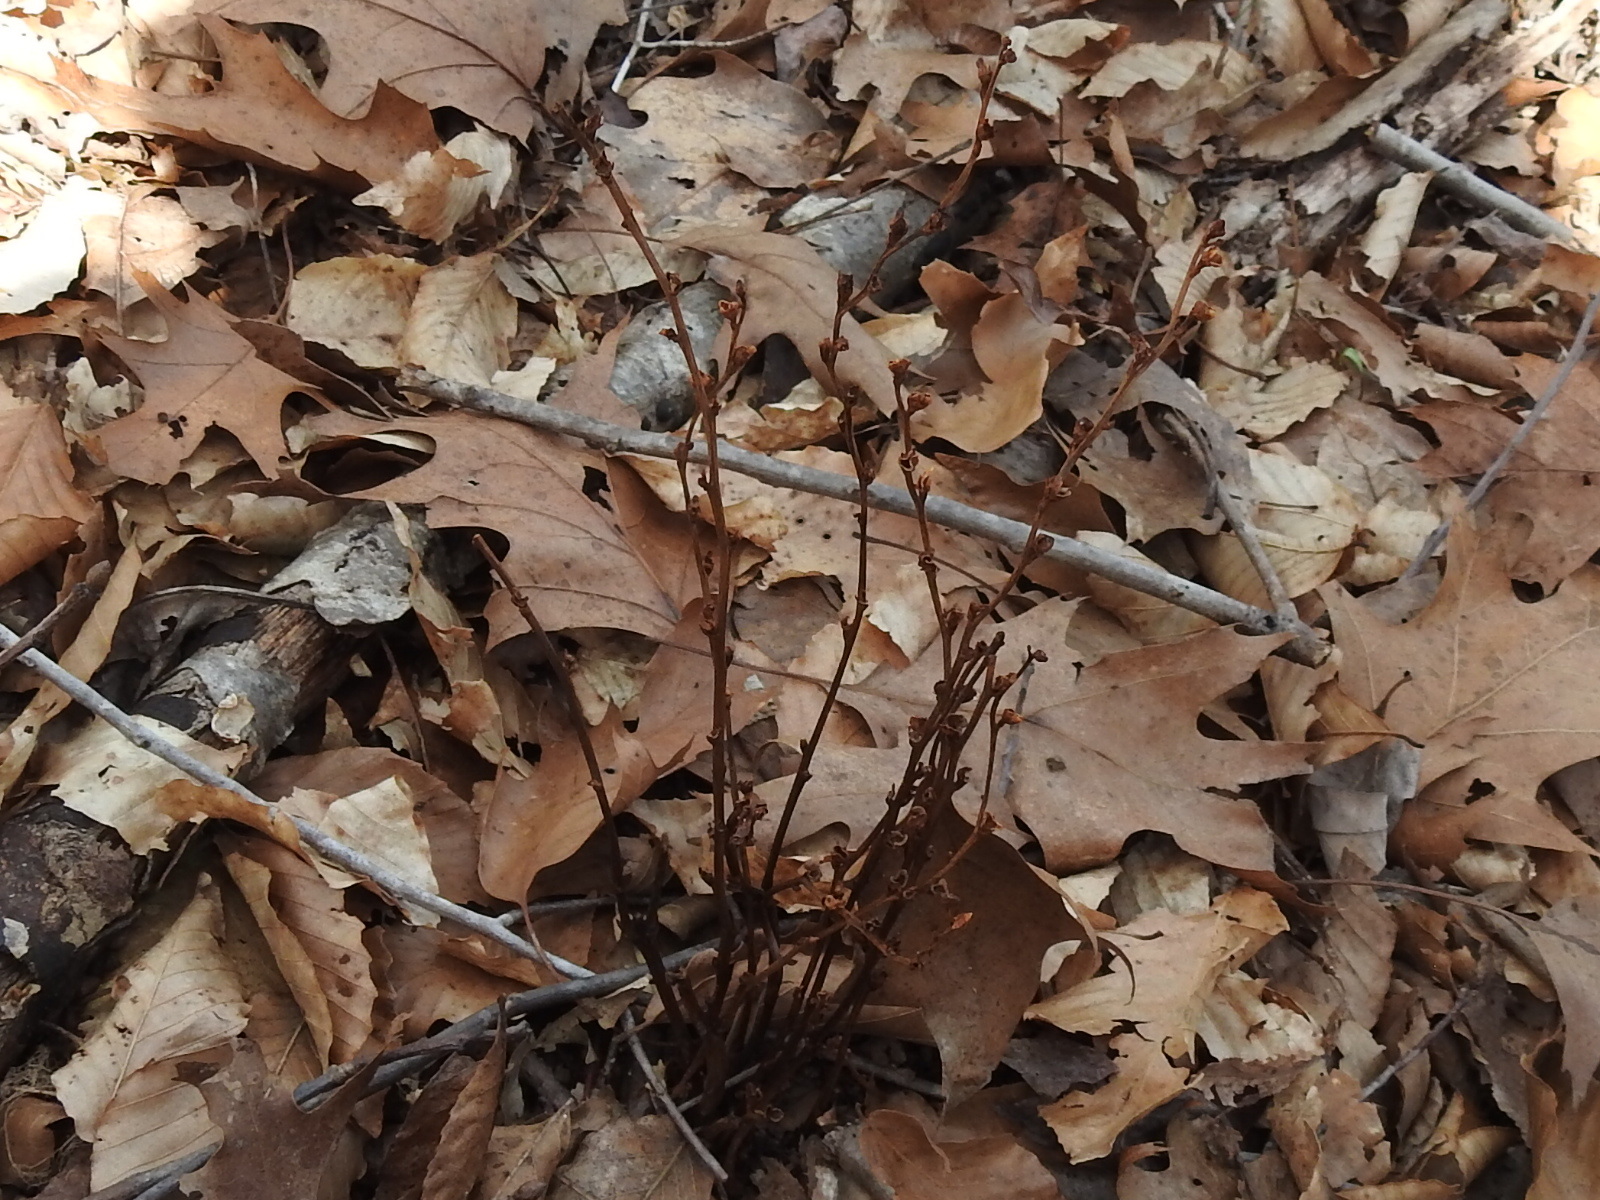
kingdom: Plantae
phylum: Tracheophyta
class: Magnoliopsida
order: Lamiales
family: Orobanchaceae
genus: Epifagus
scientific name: Epifagus virginiana
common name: Beechdrops
